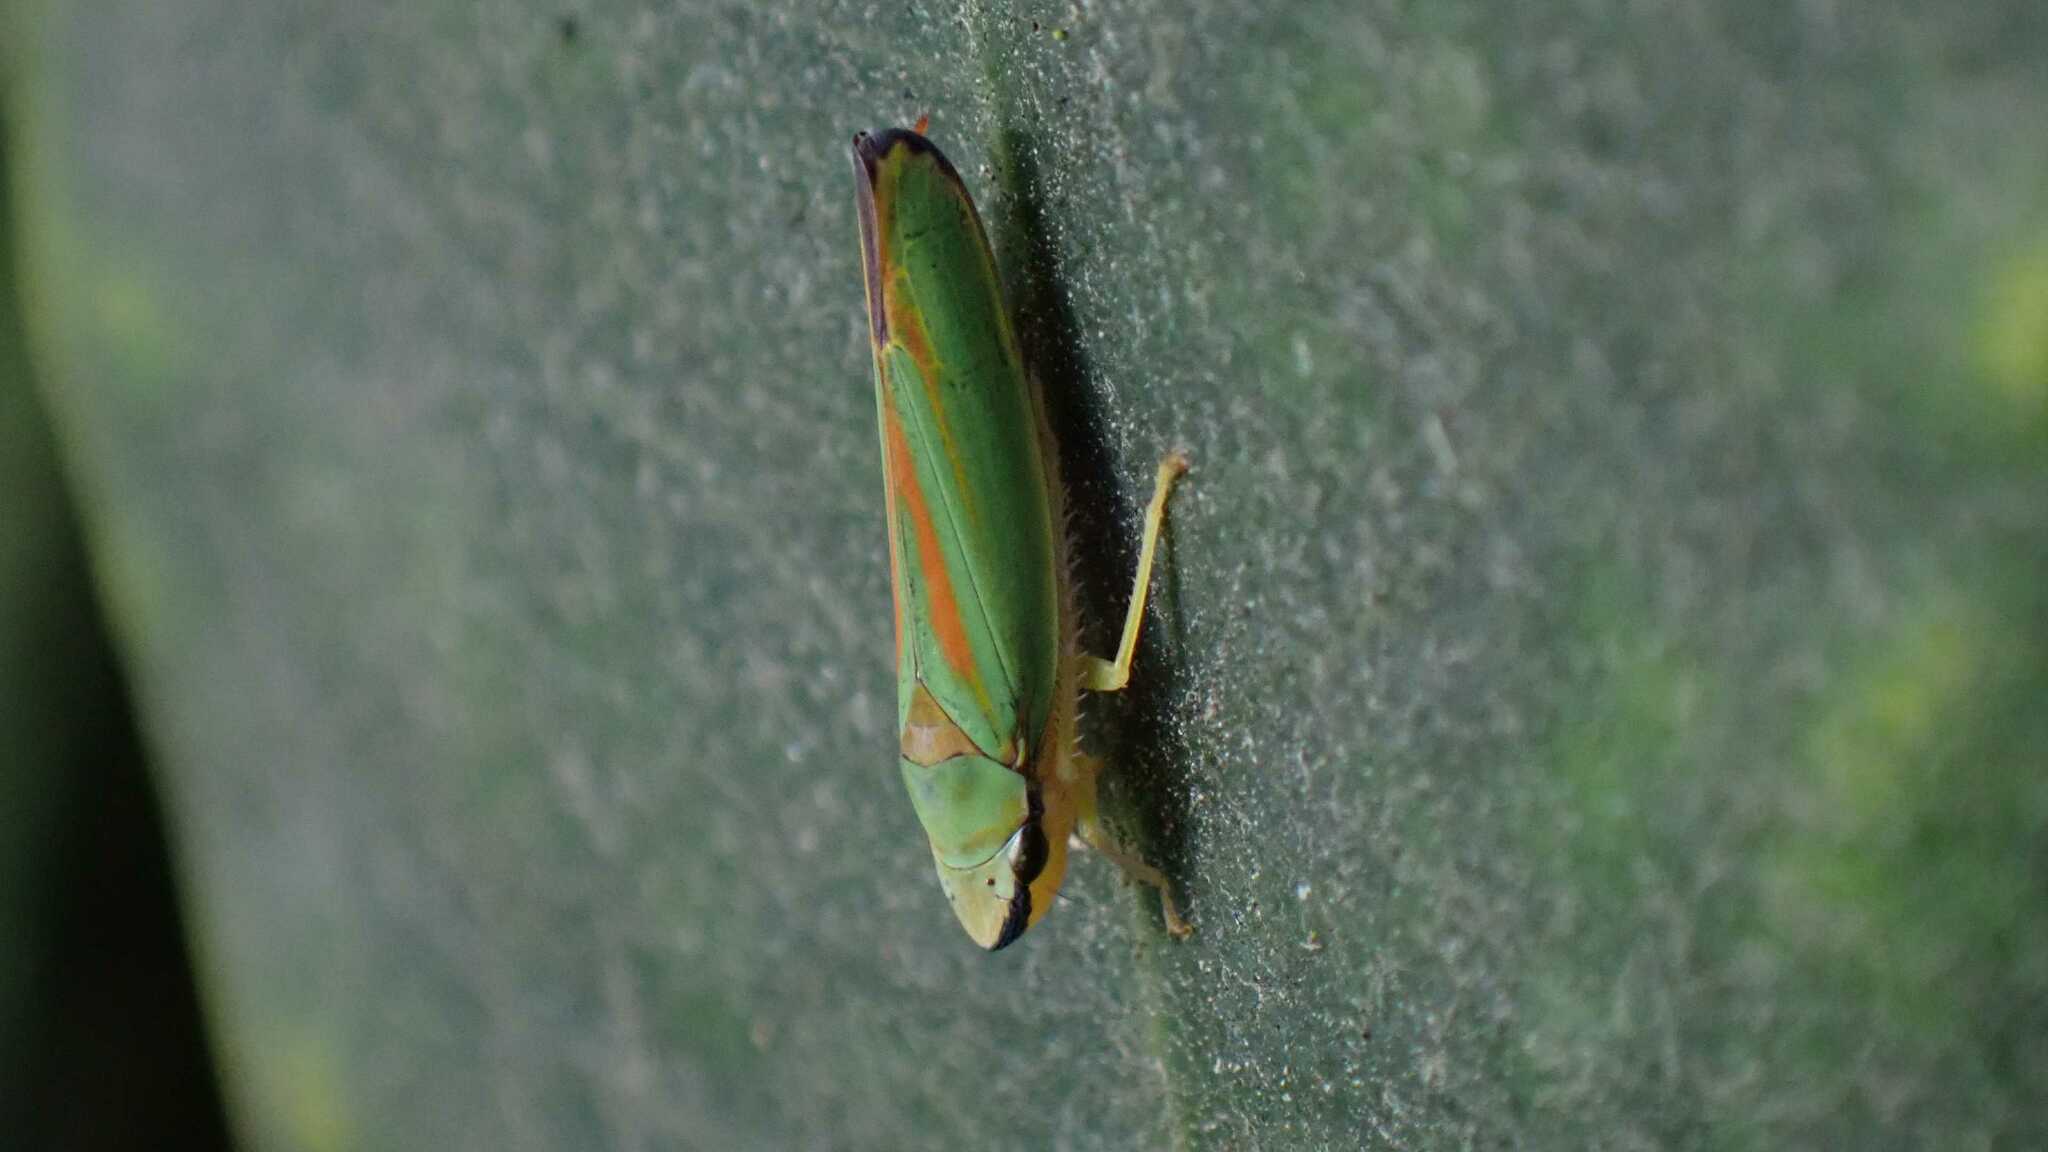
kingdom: Animalia
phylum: Arthropoda
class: Insecta
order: Hemiptera
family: Cicadellidae
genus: Graphocephala
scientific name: Graphocephala fennahi
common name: Rhododendron leafhopper
